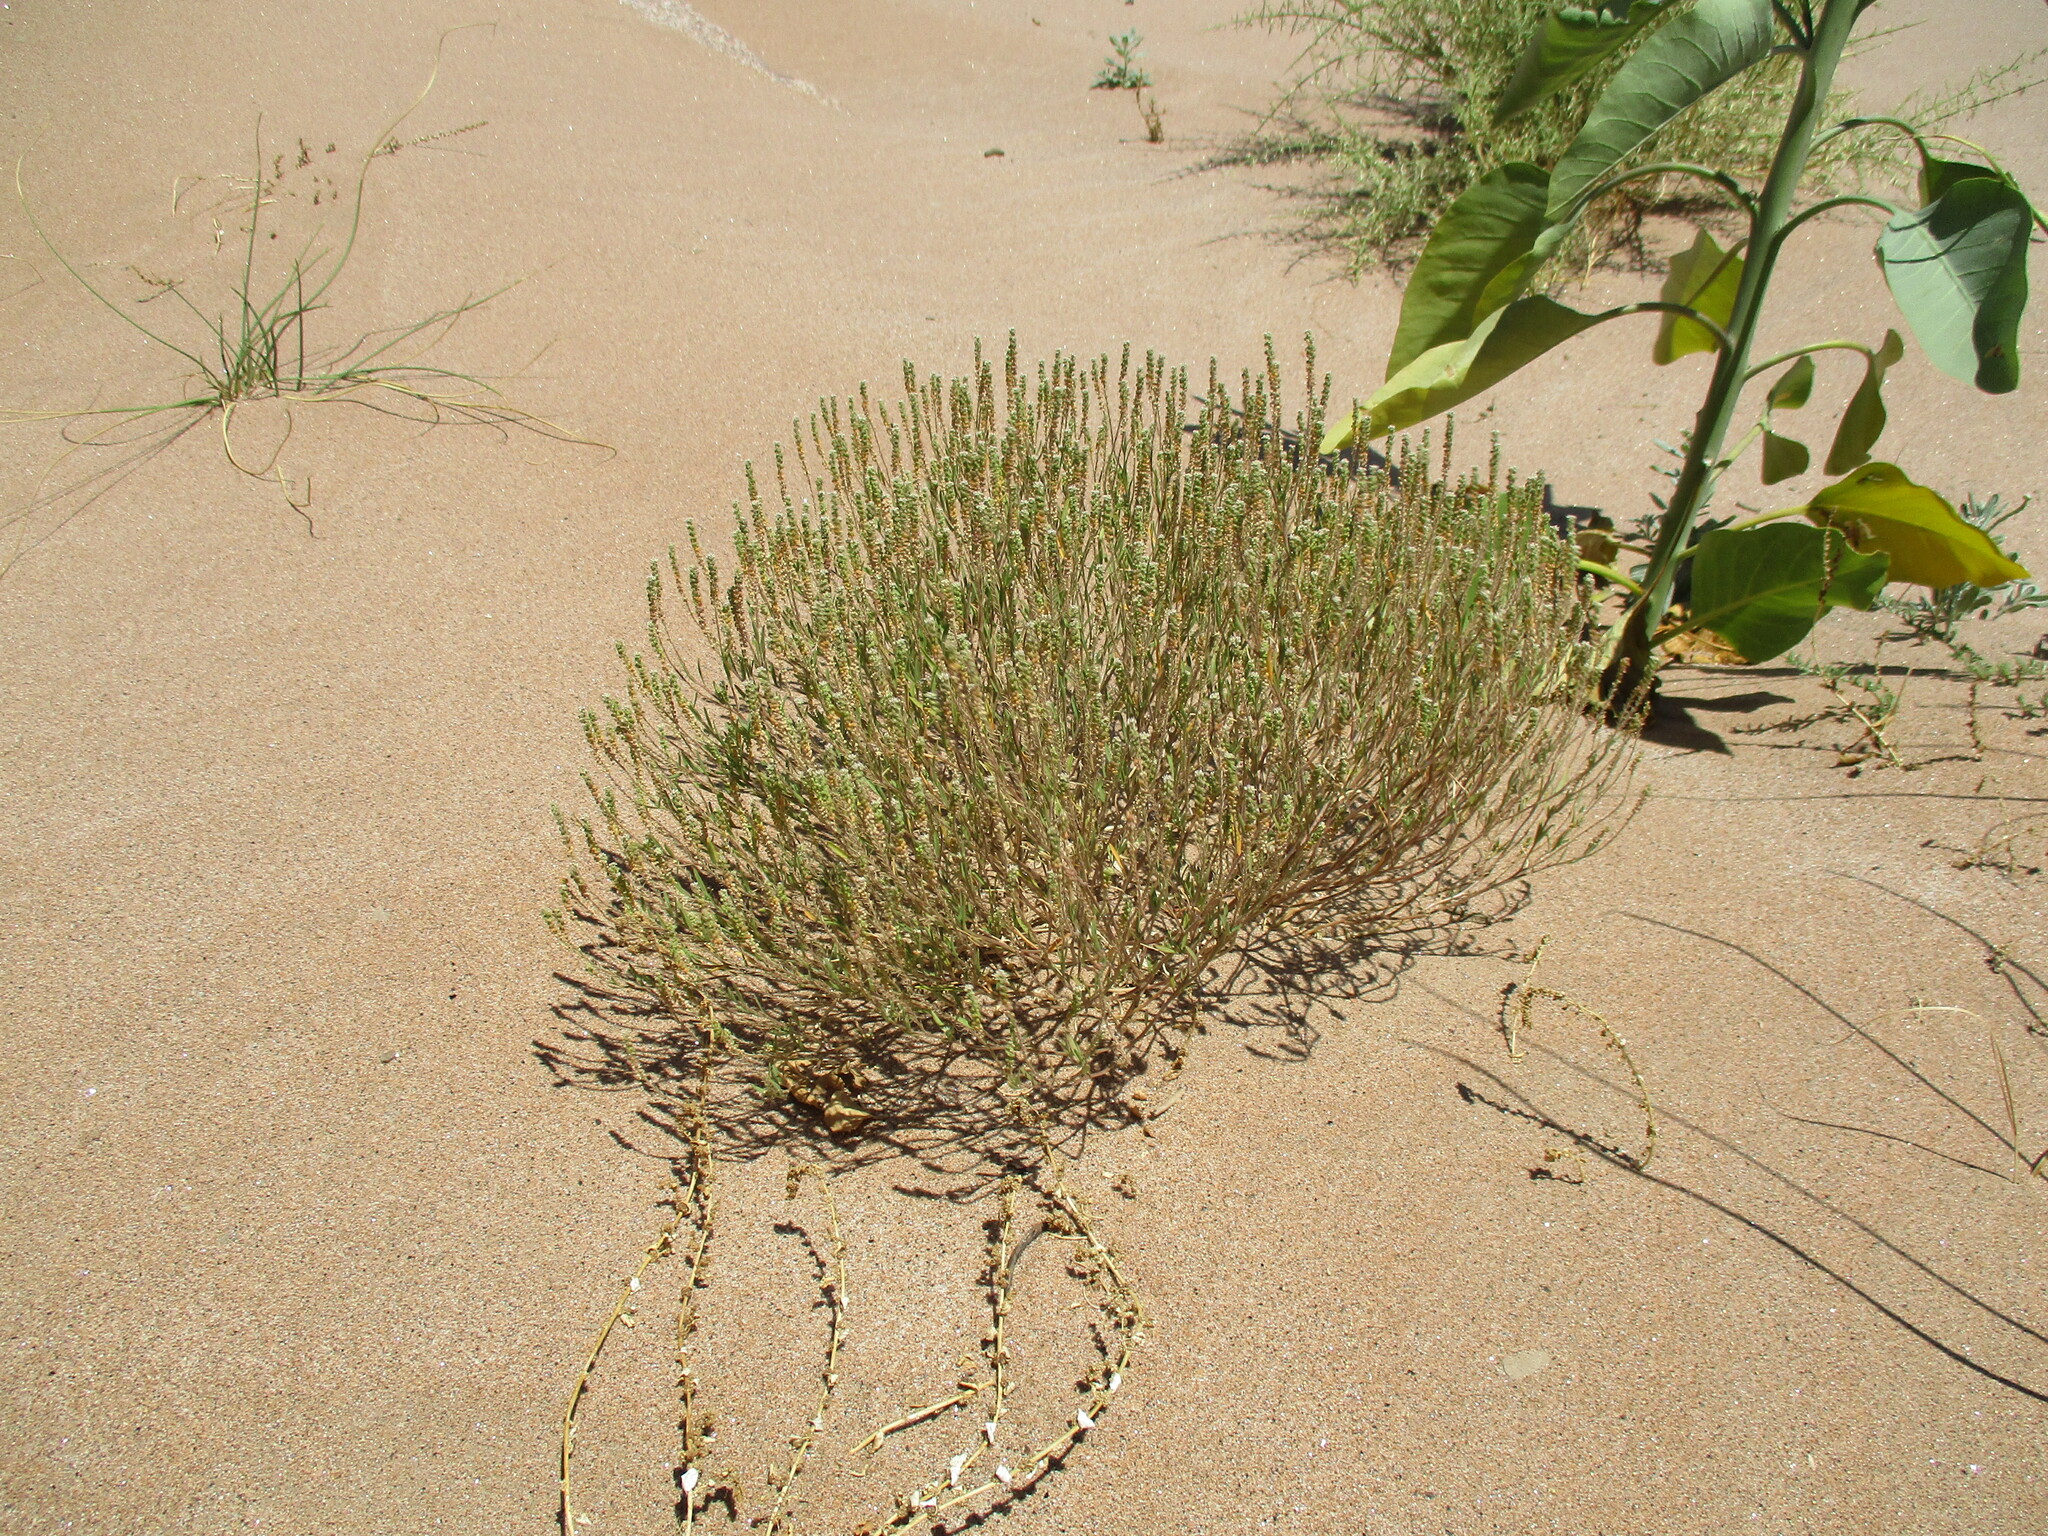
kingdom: Plantae
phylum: Tracheophyta
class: Magnoliopsida
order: Brassicales
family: Brassicaceae
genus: Lepidium
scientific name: Lepidium englerianum
